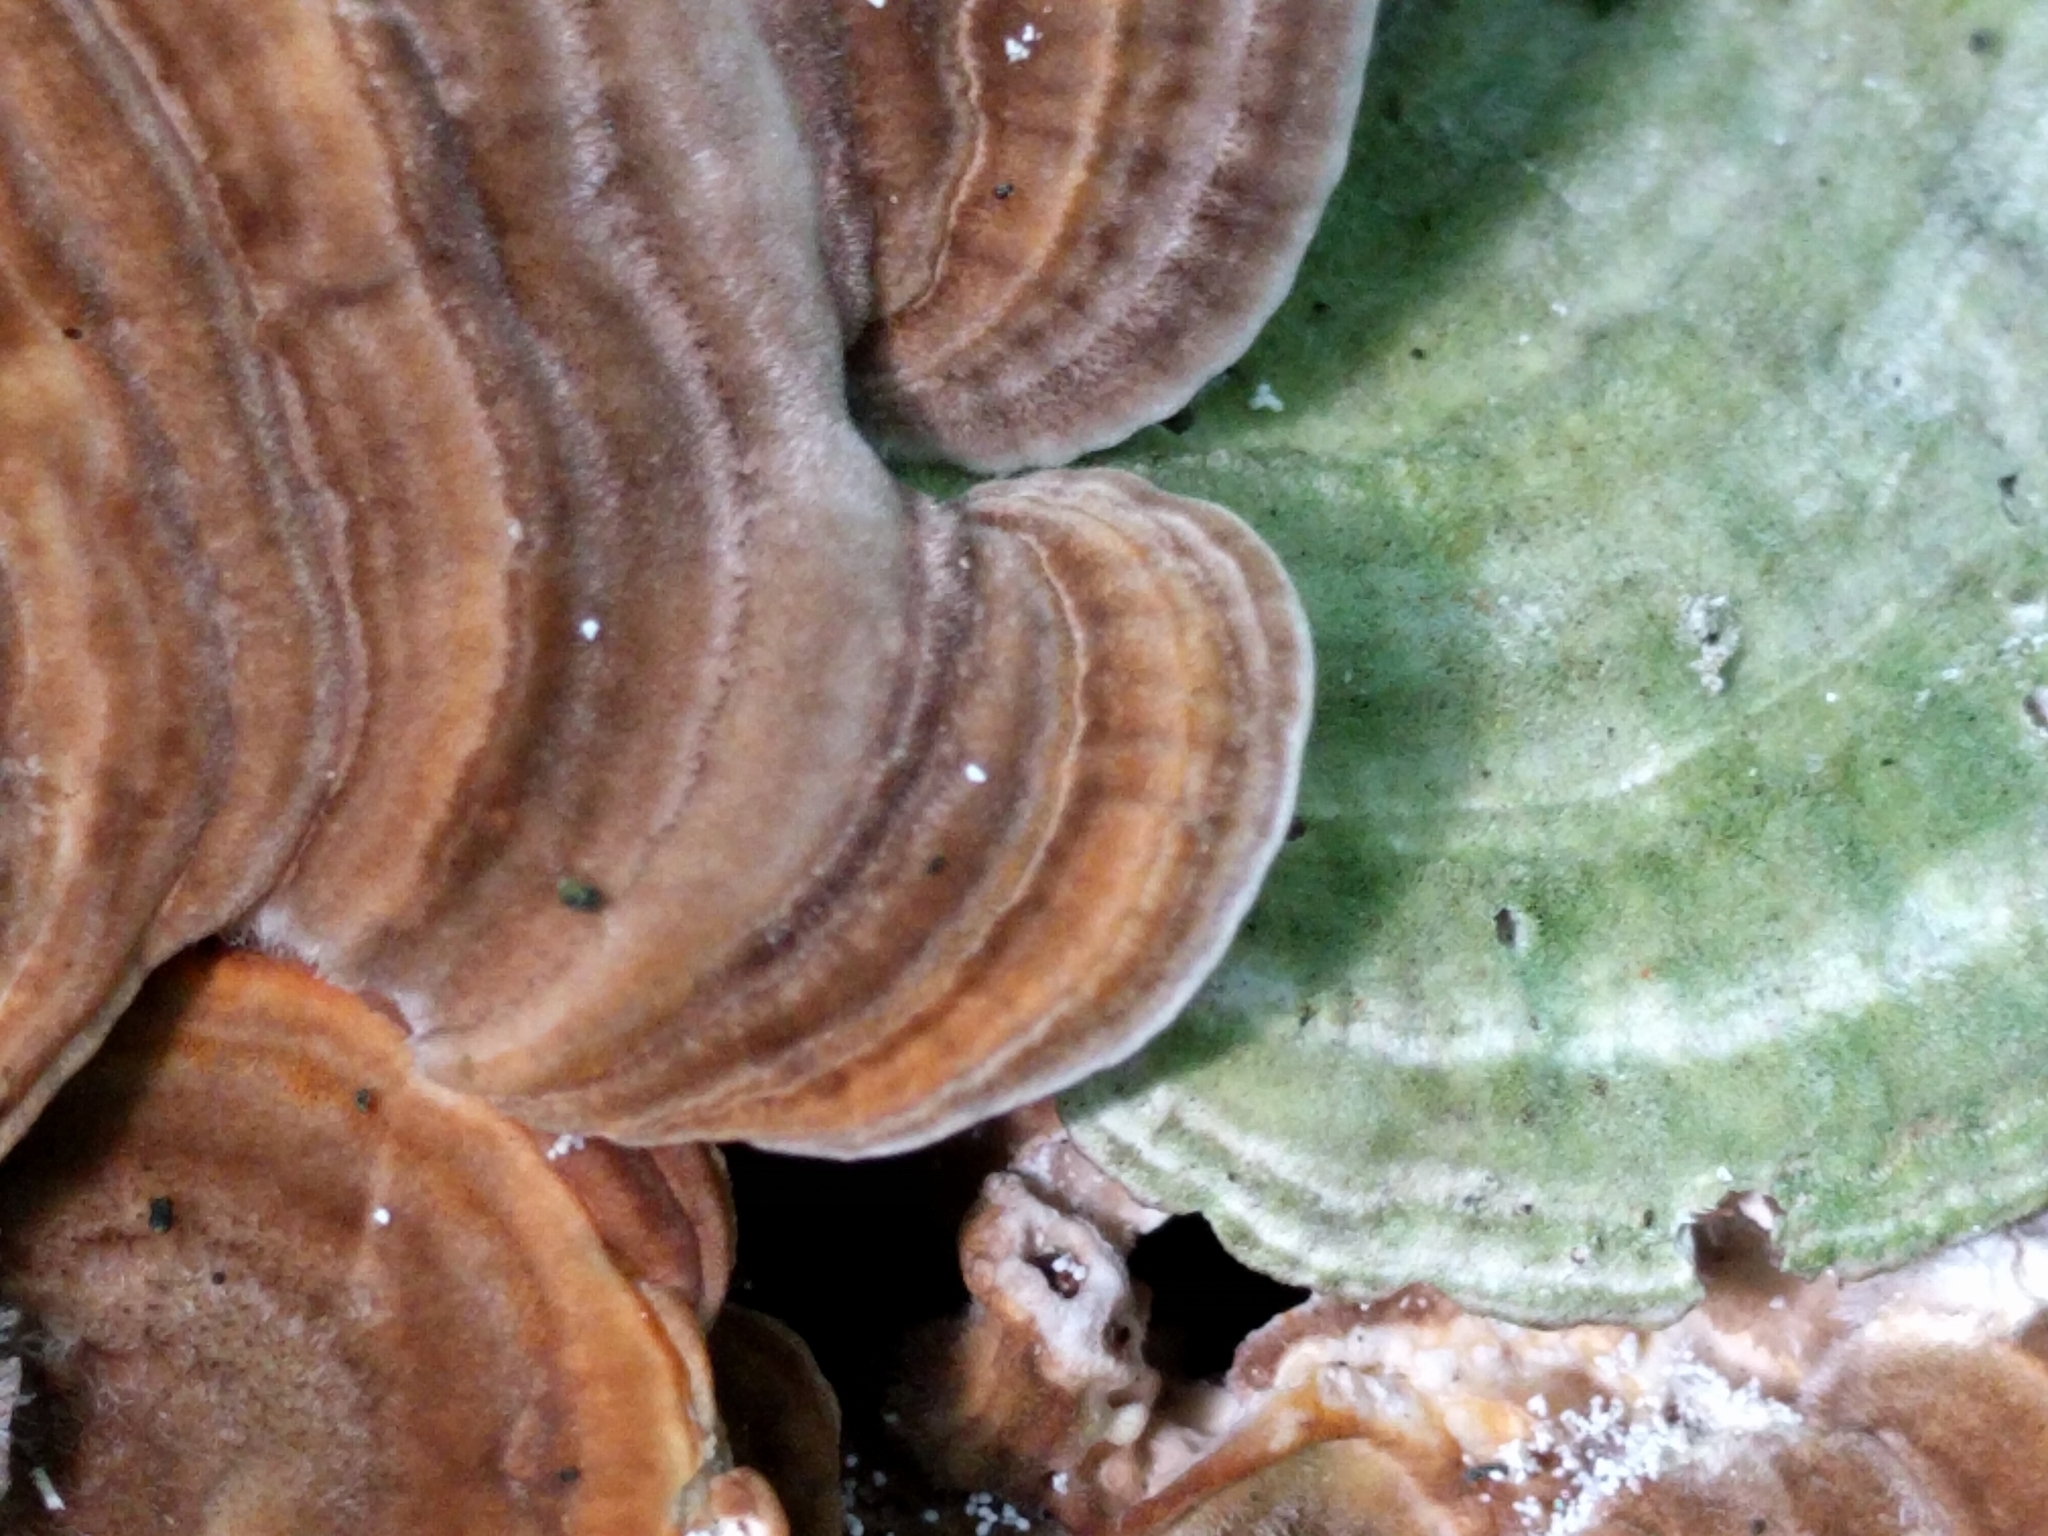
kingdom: Fungi
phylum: Basidiomycota
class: Agaricomycetes
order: Polyporales
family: Polyporaceae
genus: Lenzites
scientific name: Lenzites betulinus
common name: Birch mazegill
